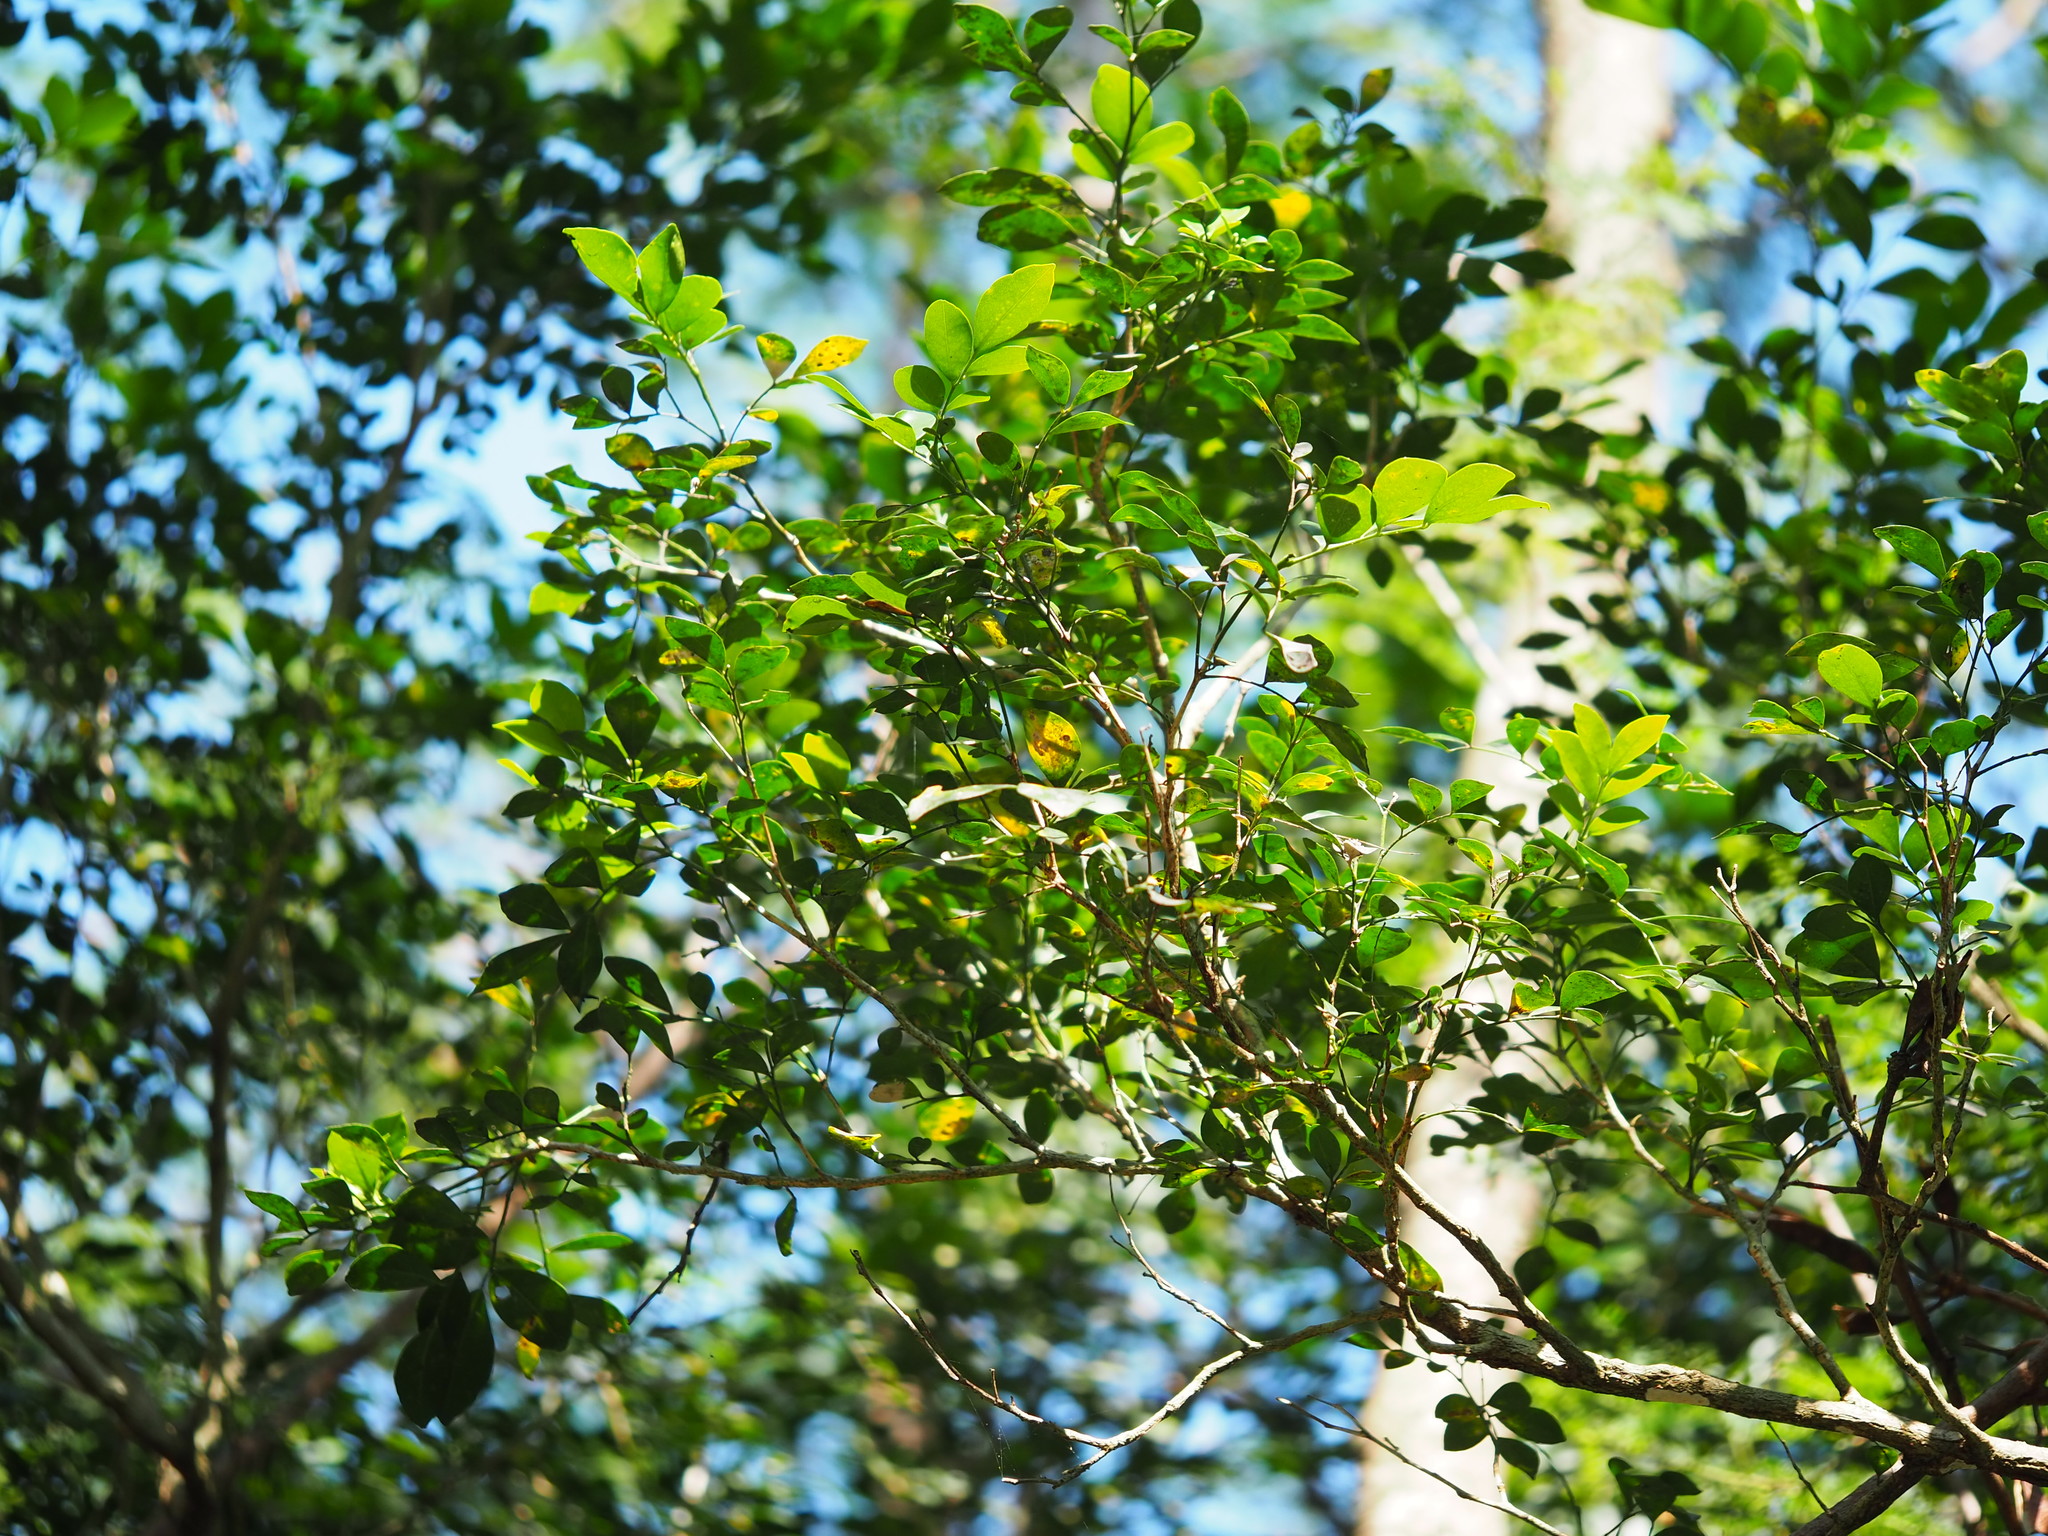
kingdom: Plantae
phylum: Tracheophyta
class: Magnoliopsida
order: Sapindales
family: Rutaceae
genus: Murraya
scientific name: Murraya paniculata
